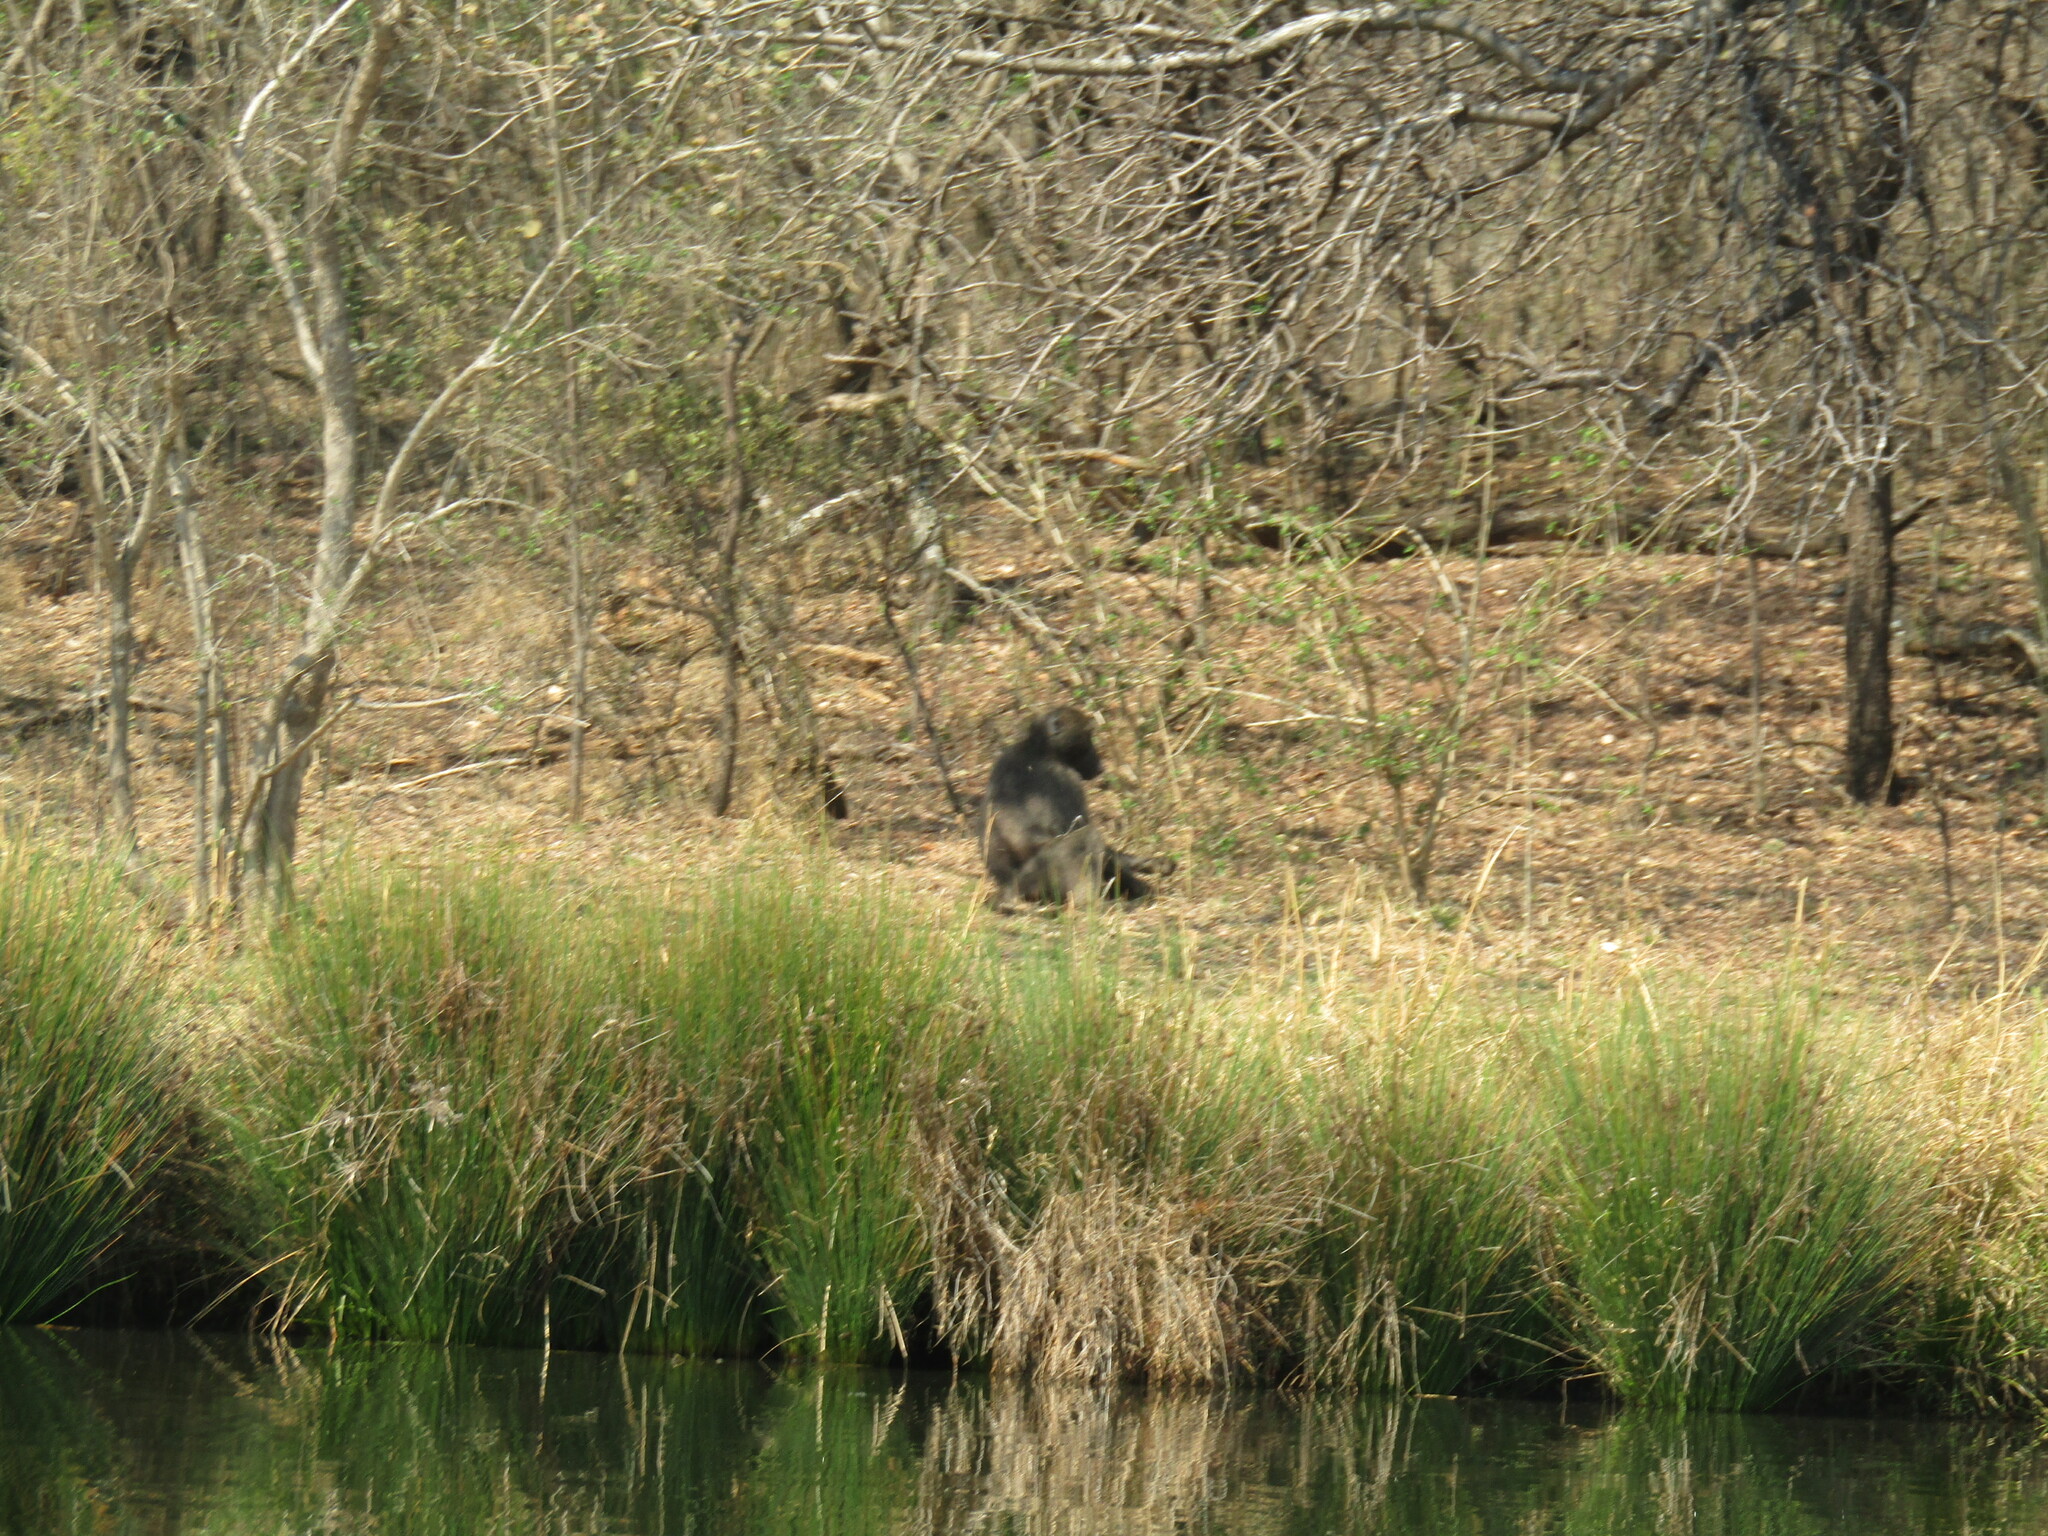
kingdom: Animalia
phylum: Chordata
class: Mammalia
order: Primates
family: Cercopithecidae
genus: Papio
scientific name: Papio ursinus
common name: Chacma baboon
